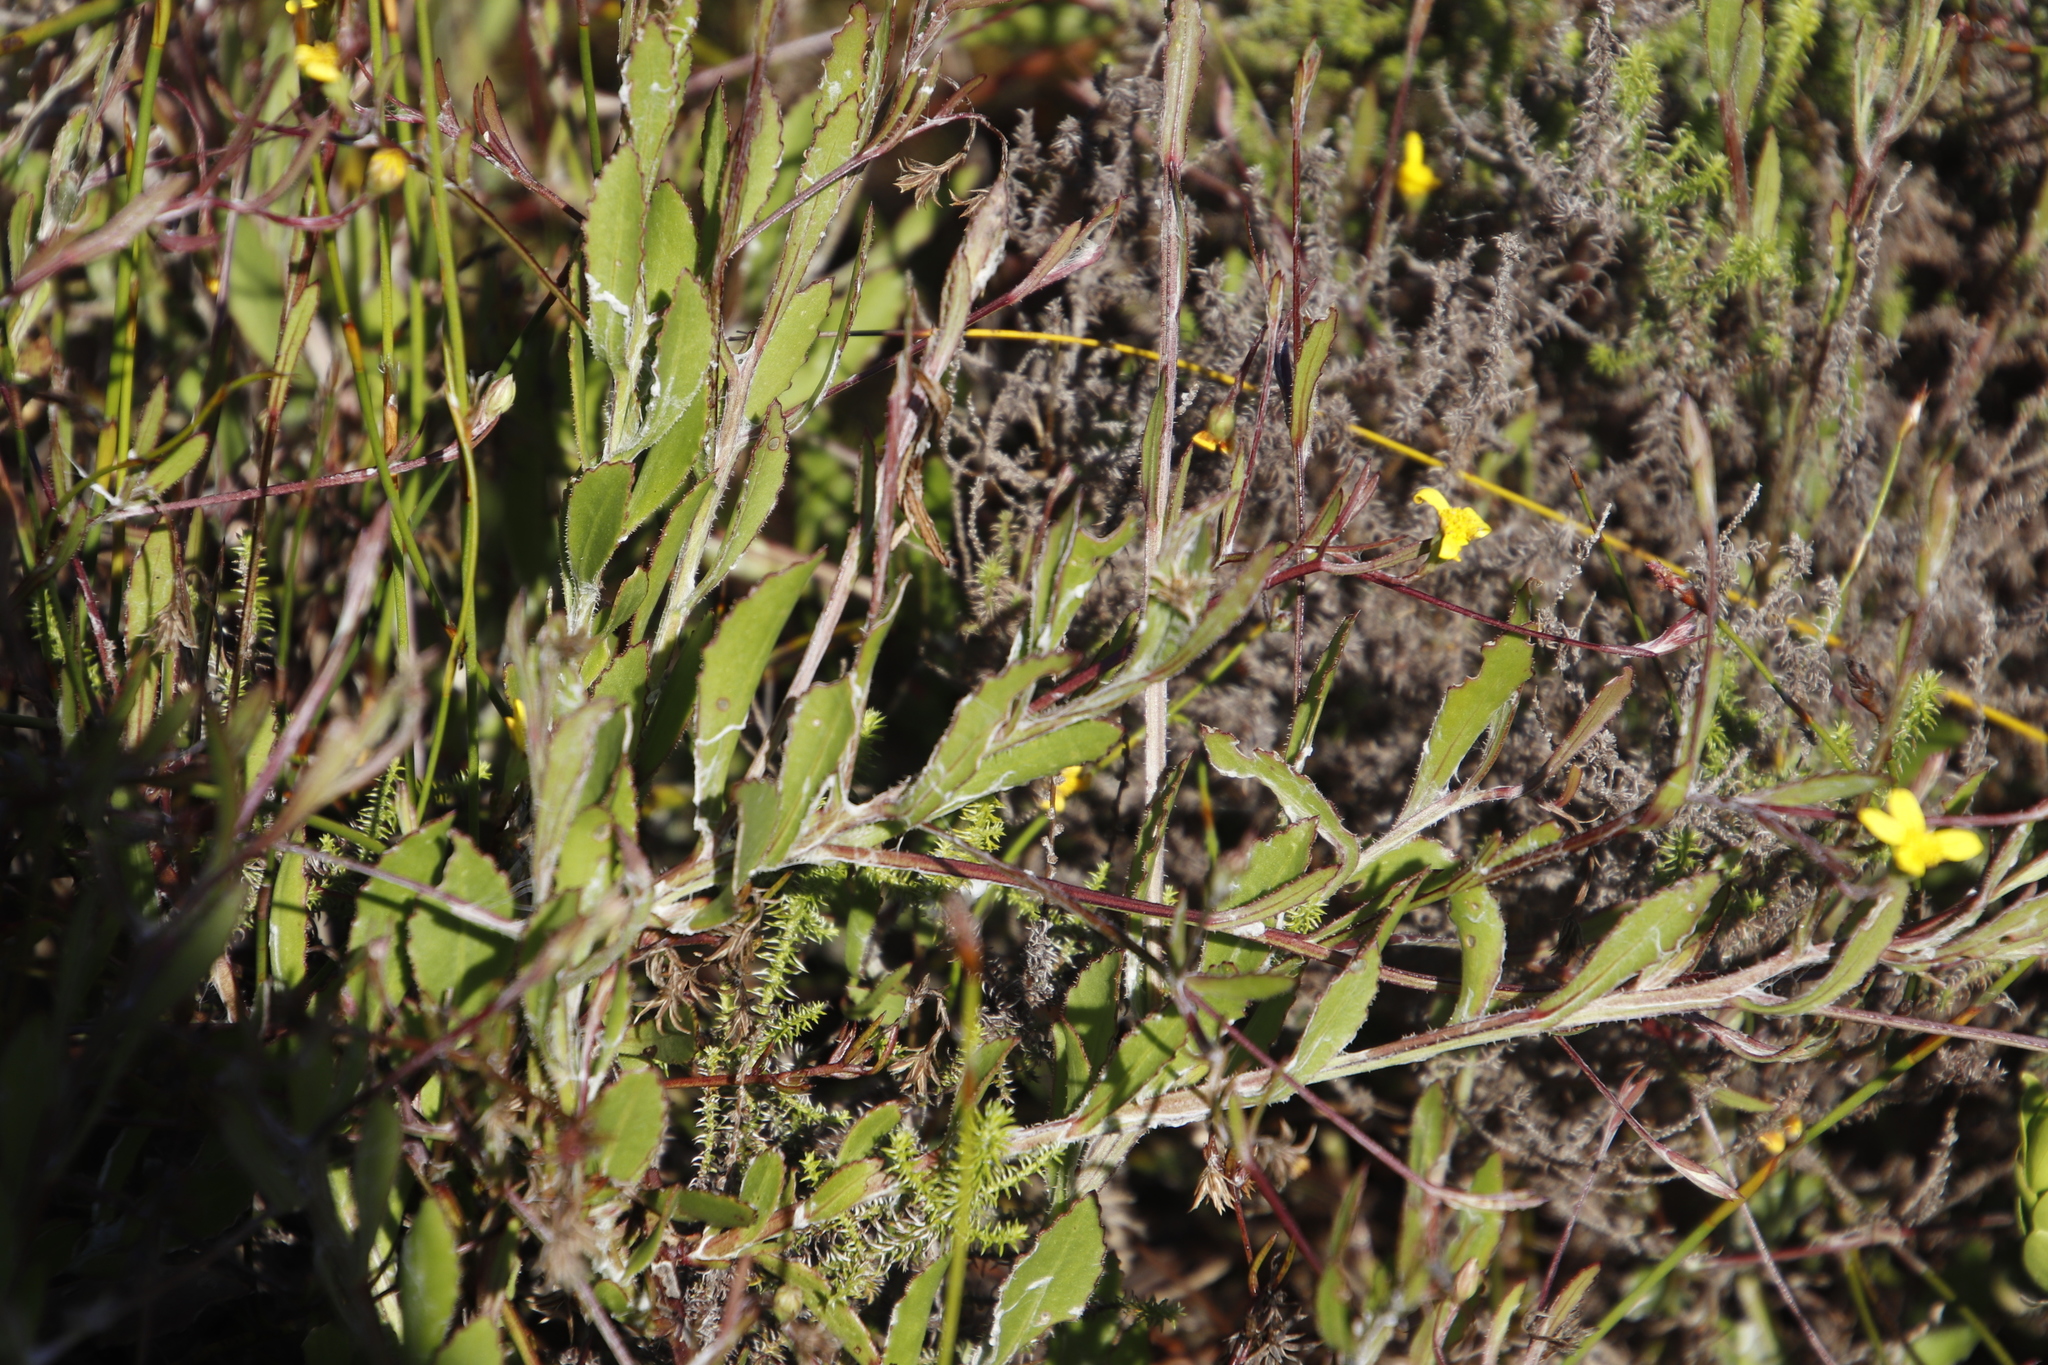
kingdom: Plantae
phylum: Tracheophyta
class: Magnoliopsida
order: Asterales
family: Asteraceae
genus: Osteospermum
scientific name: Osteospermum ciliatum
